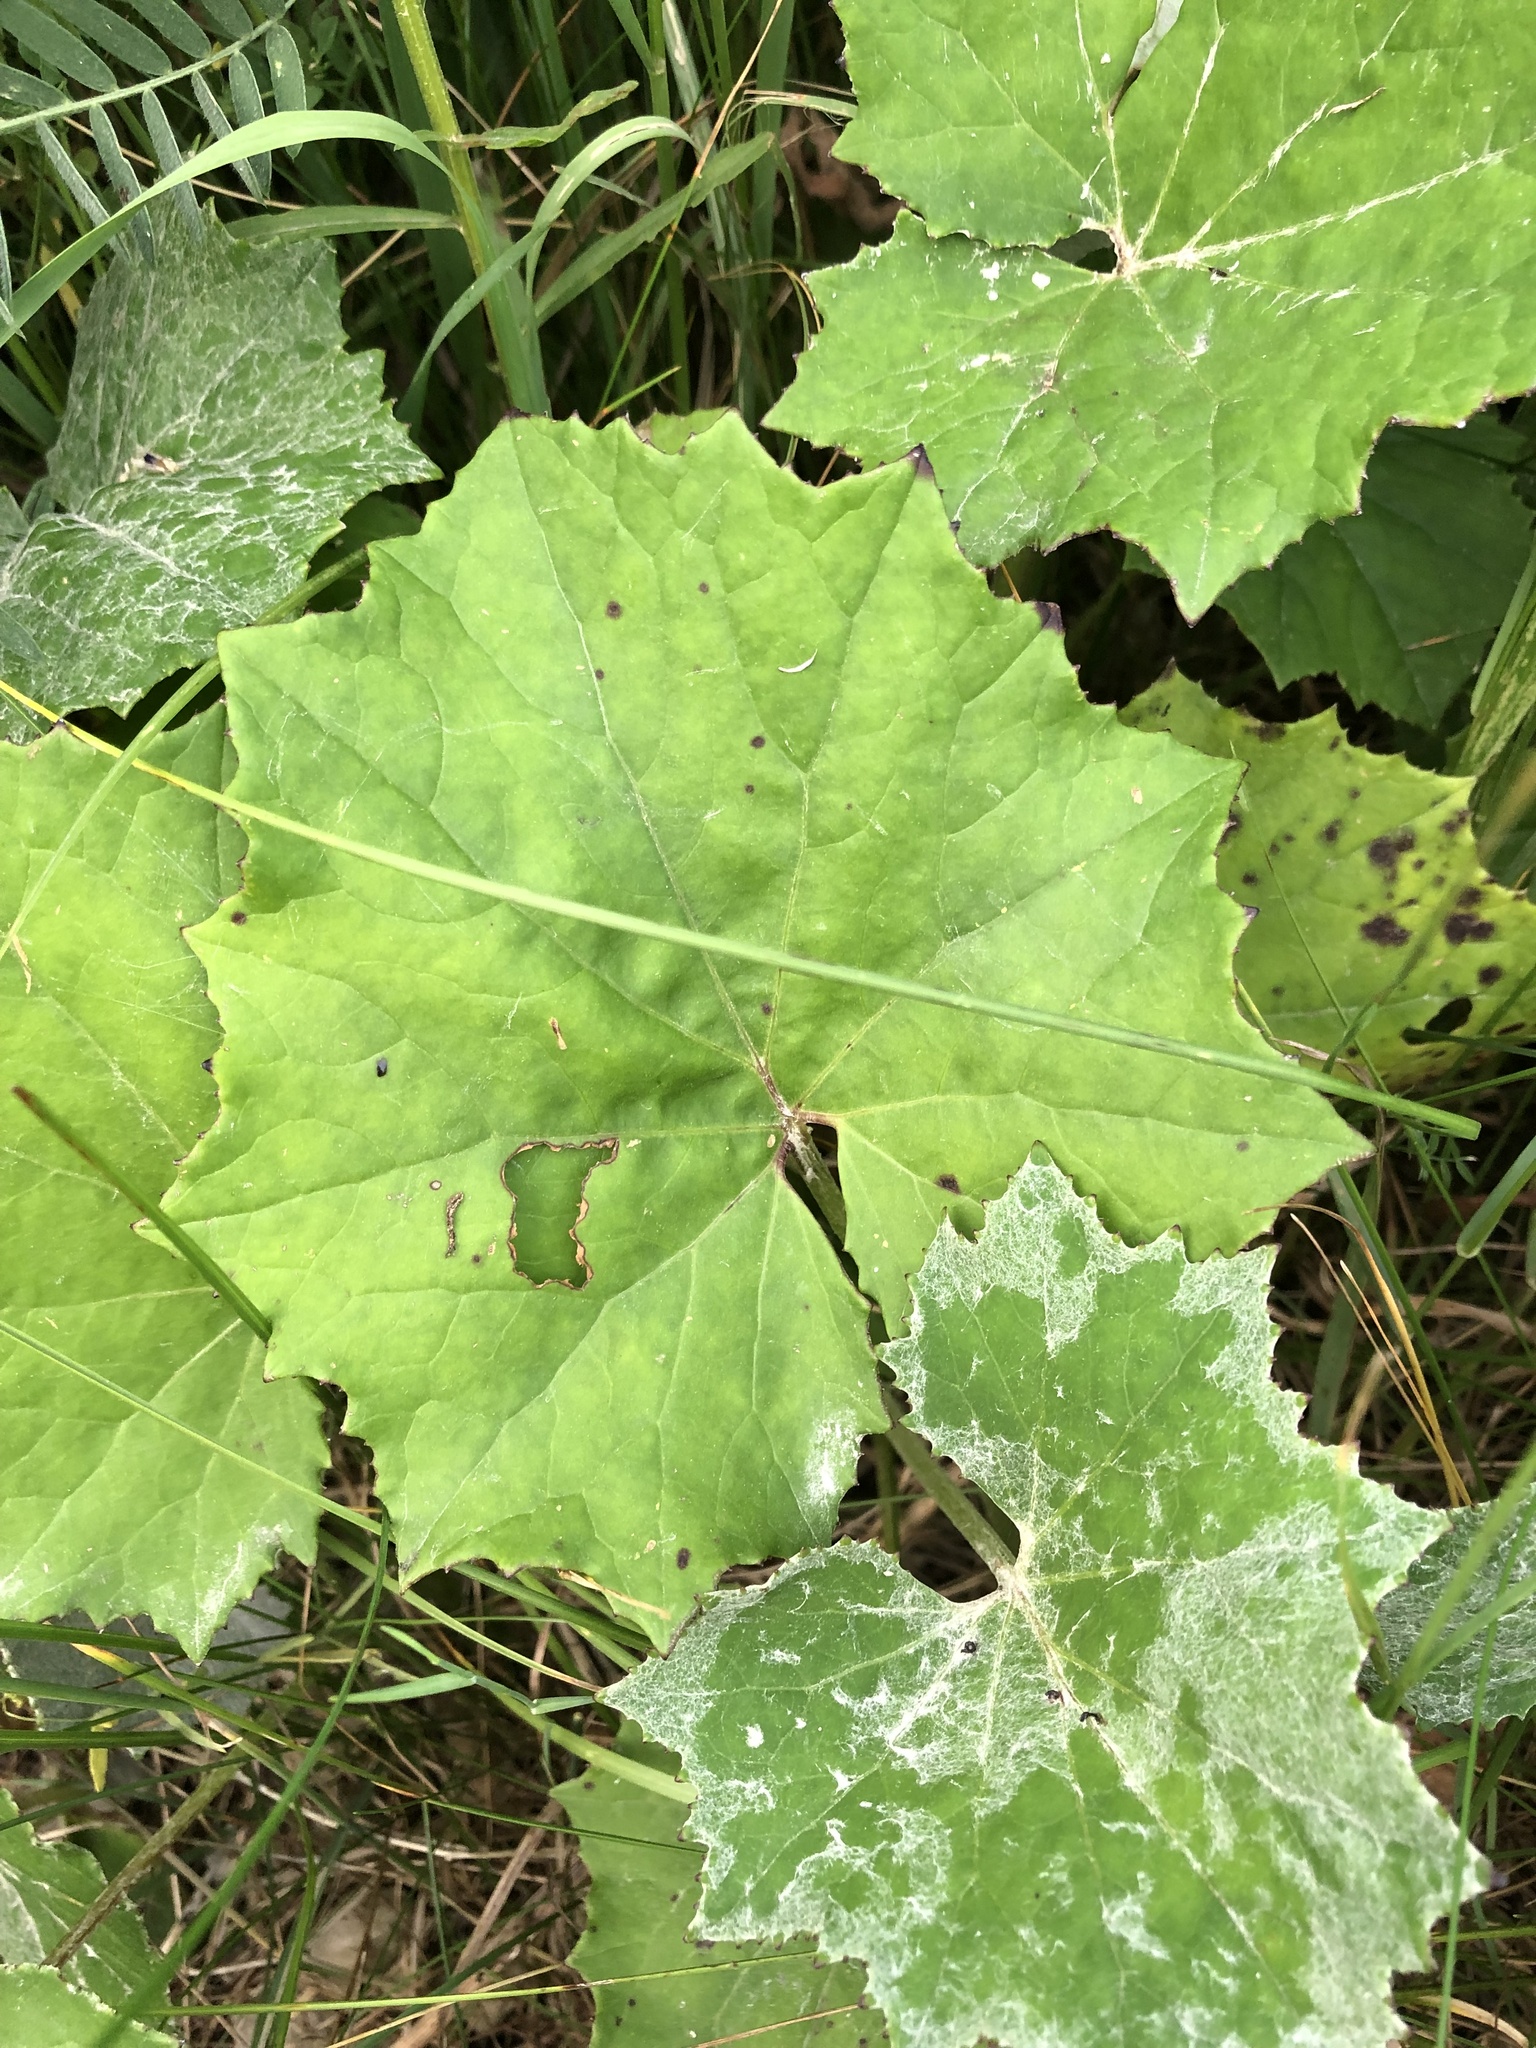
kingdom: Plantae
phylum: Tracheophyta
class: Magnoliopsida
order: Asterales
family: Asteraceae
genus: Tussilago
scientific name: Tussilago farfara
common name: Coltsfoot
